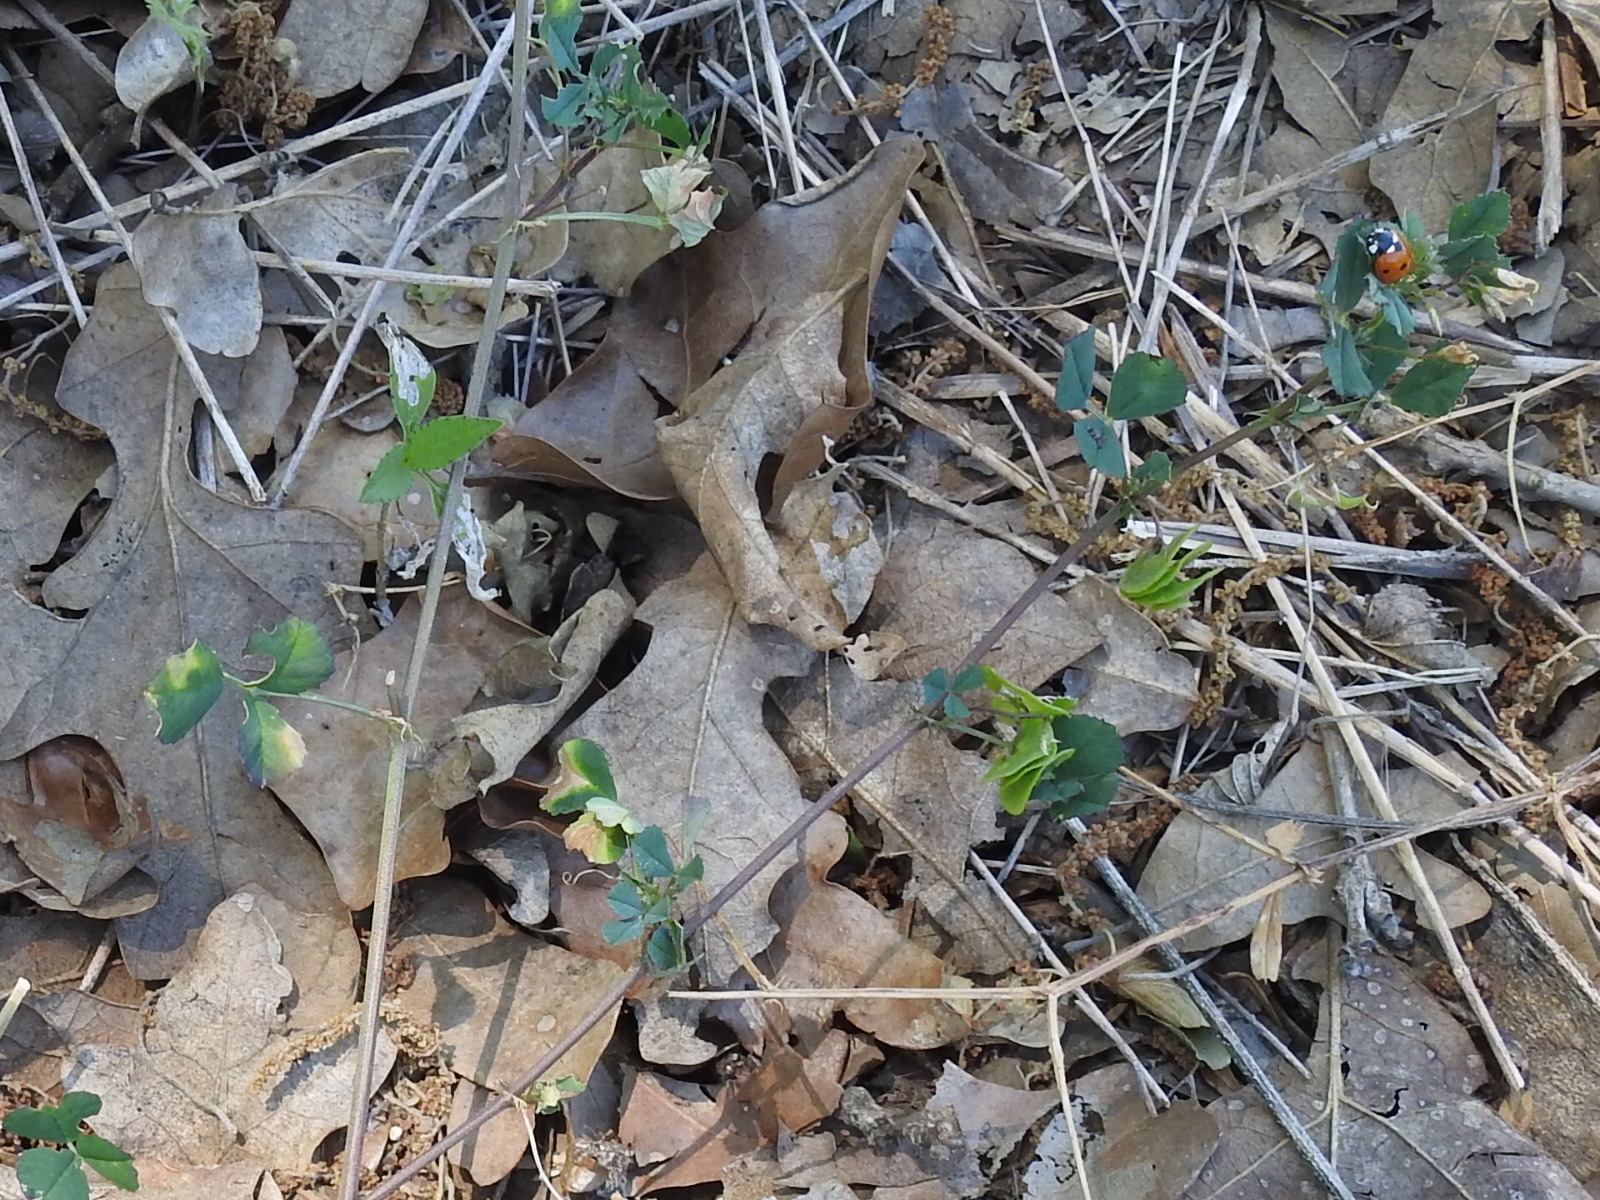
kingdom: Plantae
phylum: Tracheophyta
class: Magnoliopsida
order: Fabales
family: Fabaceae
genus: Medicago
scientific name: Medicago orbicularis
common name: Button medick
